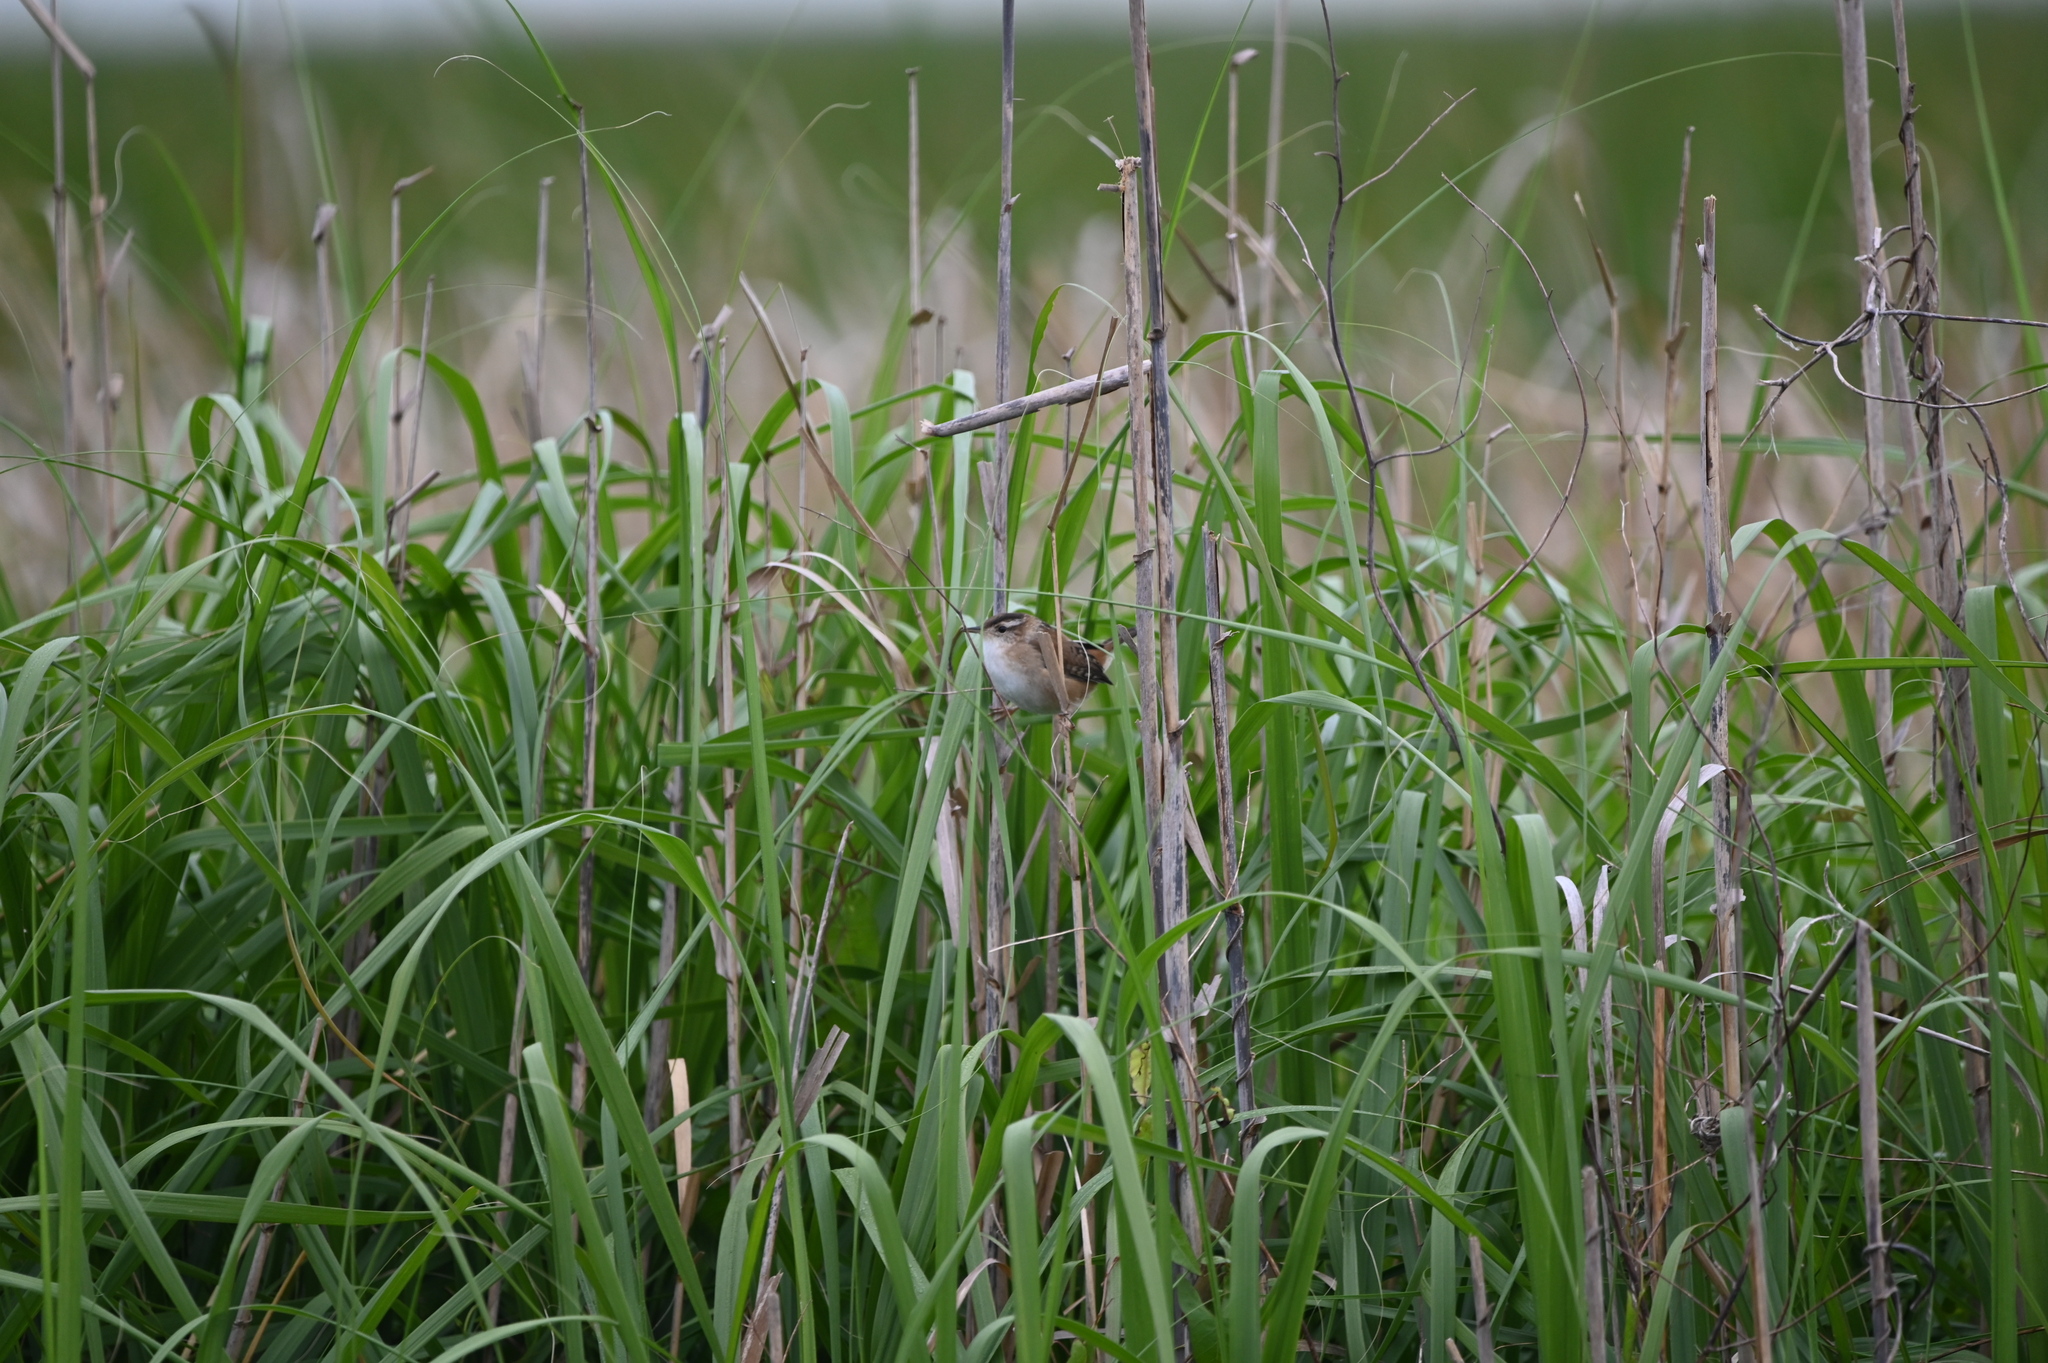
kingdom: Animalia
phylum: Chordata
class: Aves
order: Passeriformes
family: Troglodytidae
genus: Cistothorus
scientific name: Cistothorus palustris
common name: Marsh wren
